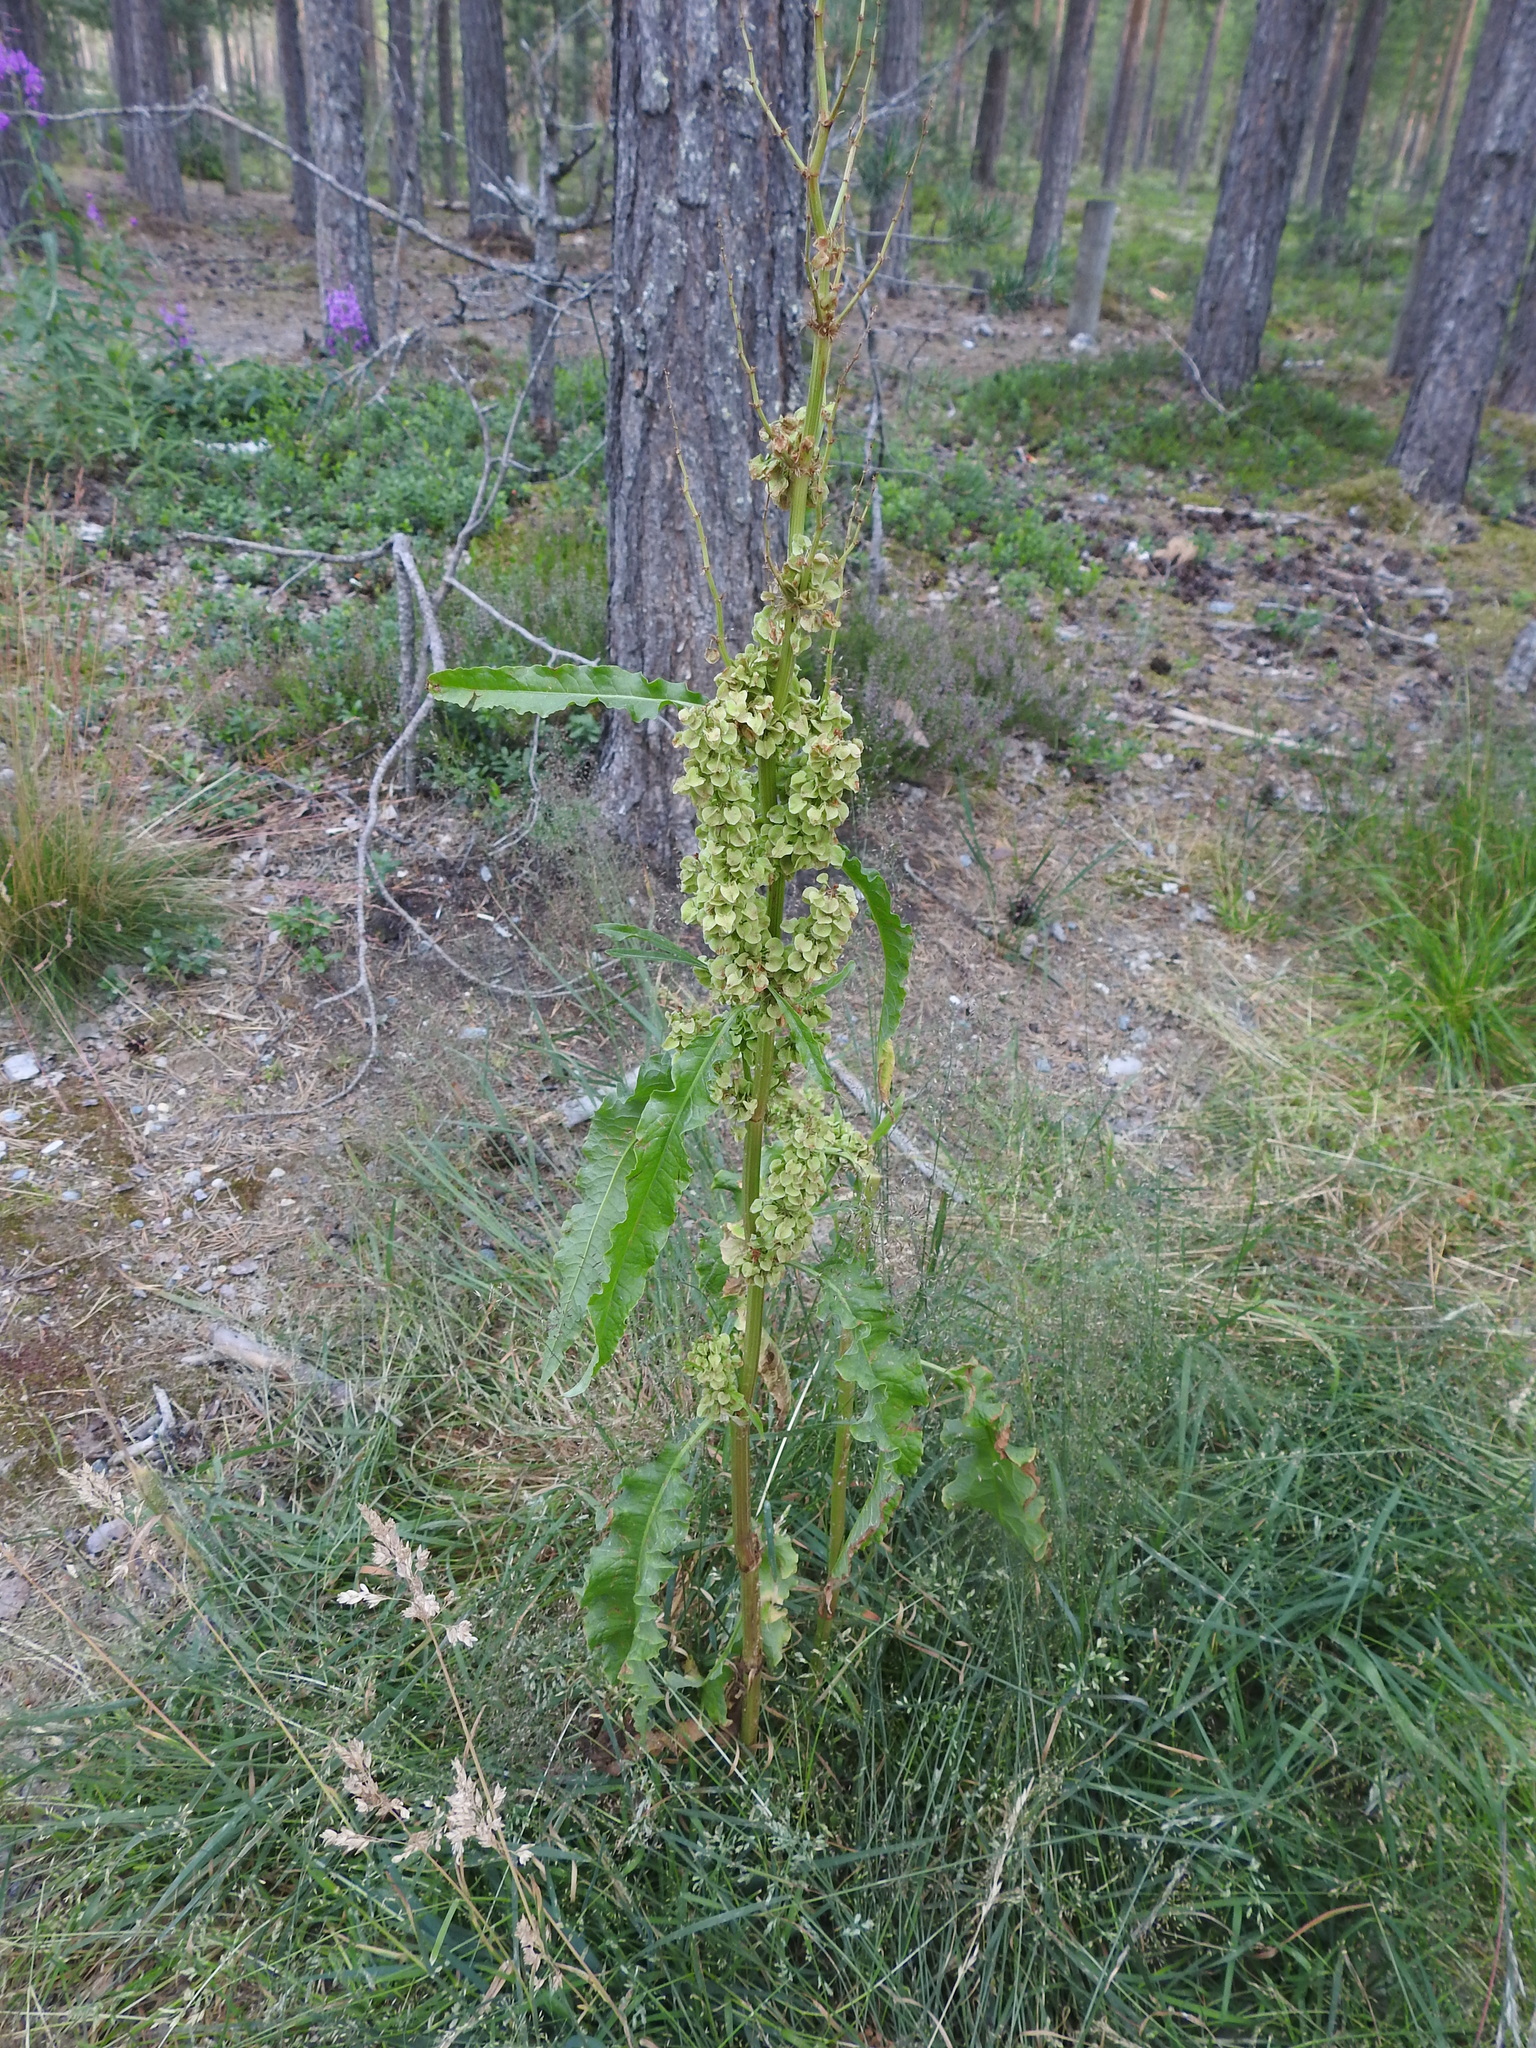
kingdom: Plantae
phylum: Tracheophyta
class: Magnoliopsida
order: Caryophyllales
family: Polygonaceae
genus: Rumex
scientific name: Rumex crispus
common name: Curled dock
